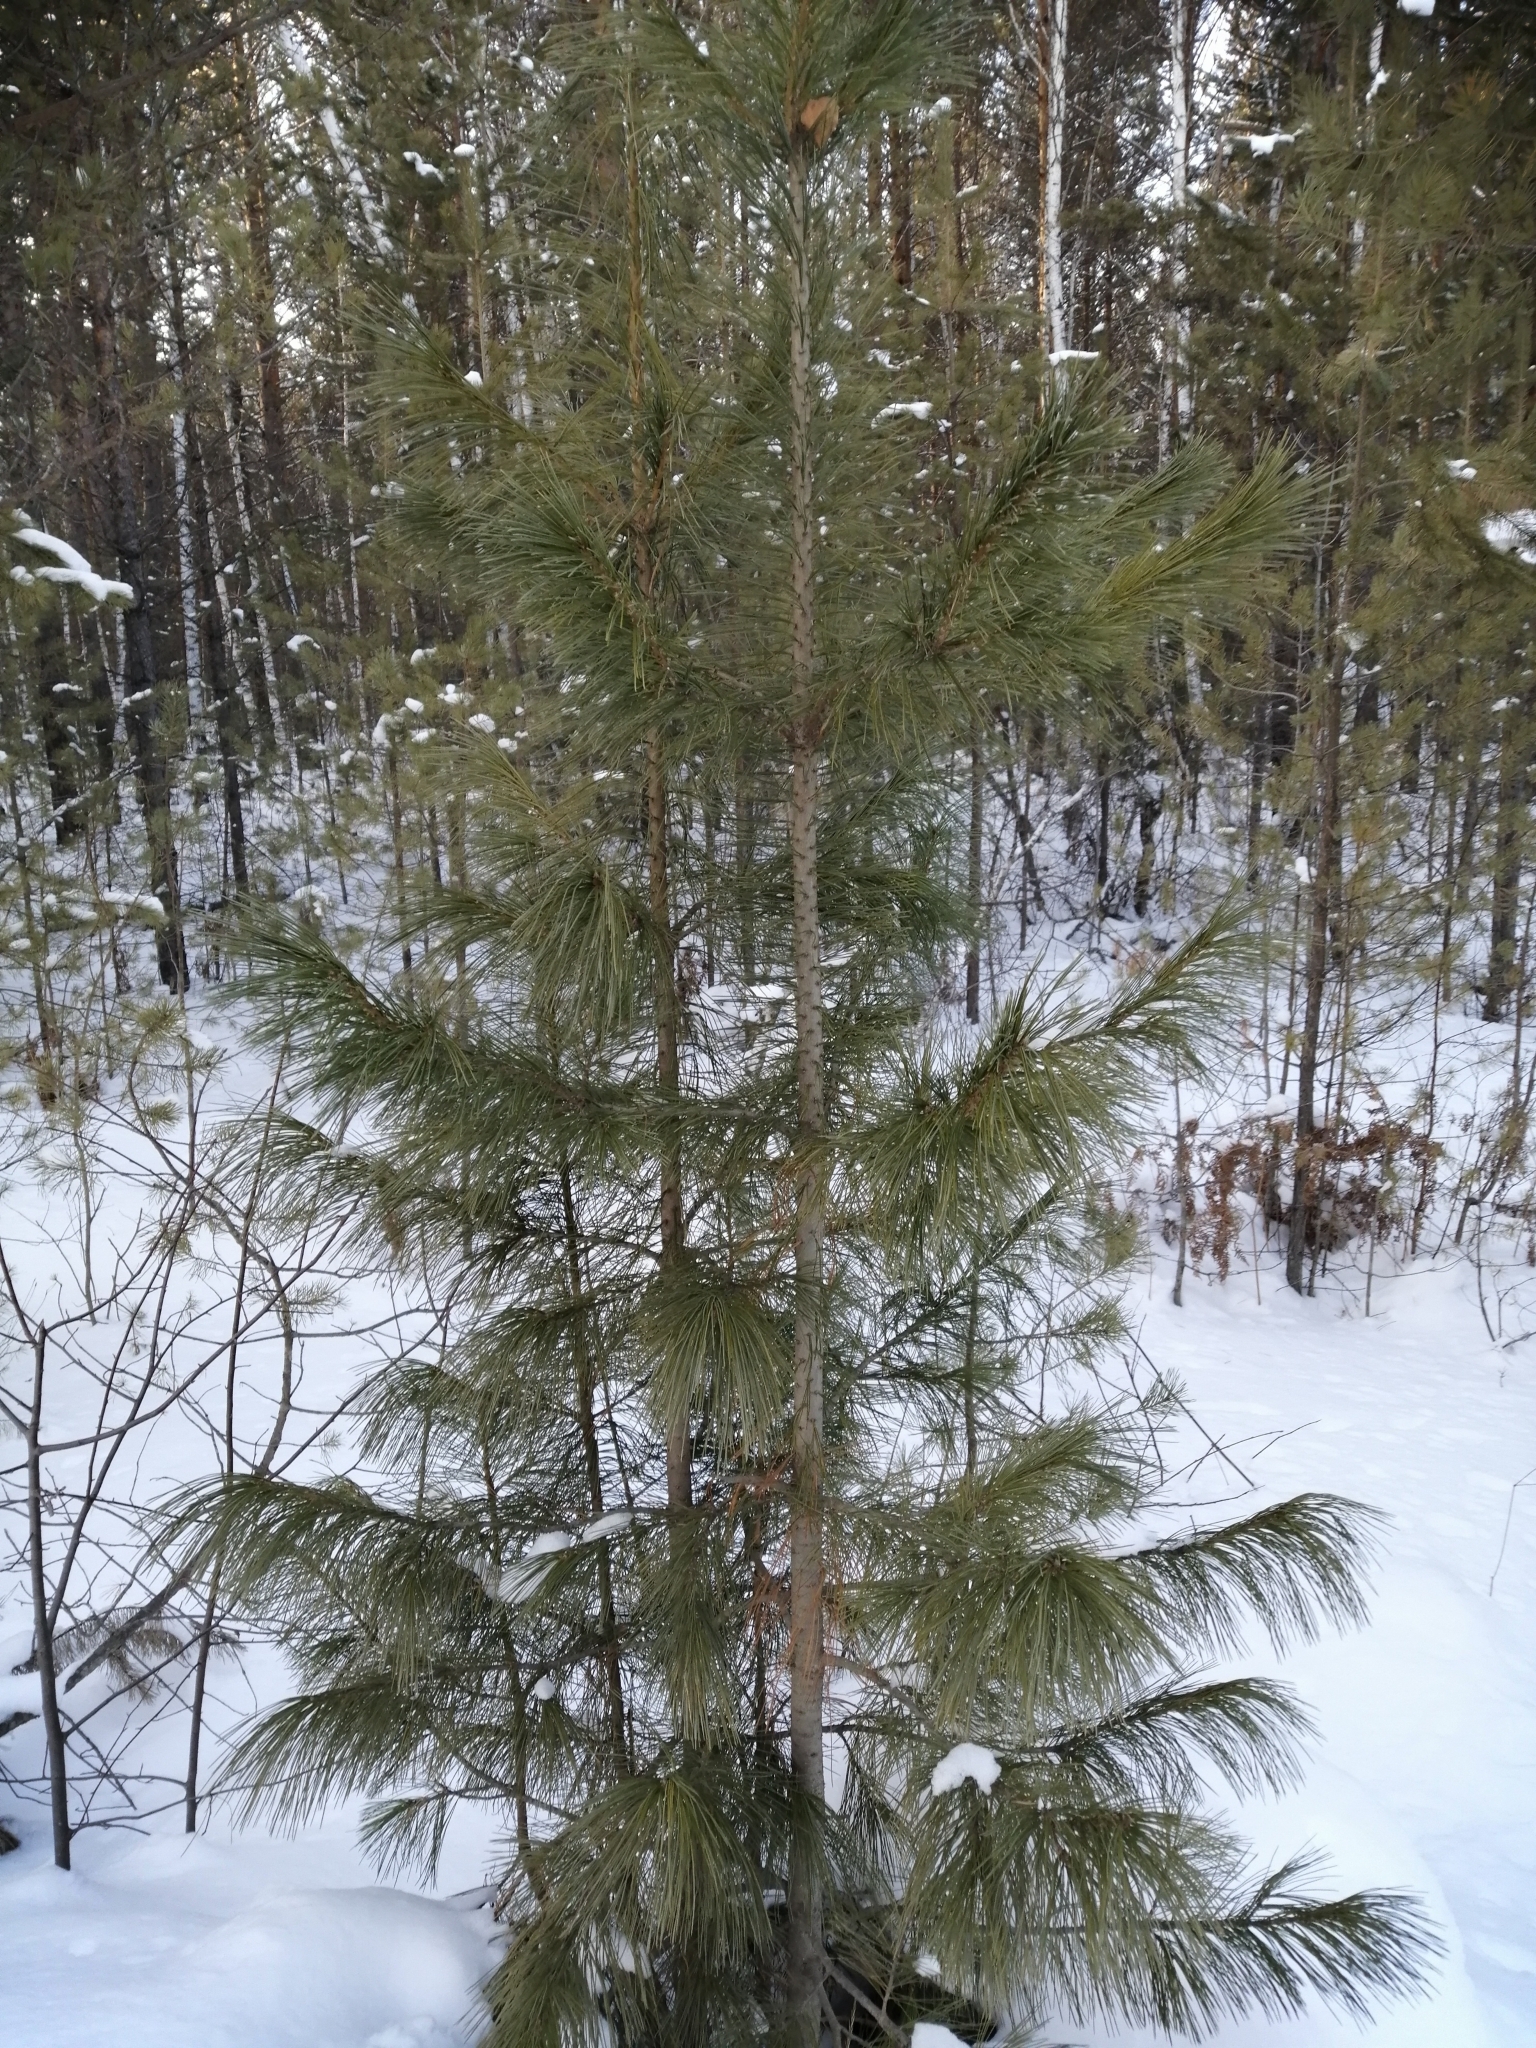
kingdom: Plantae
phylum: Tracheophyta
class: Pinopsida
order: Pinales
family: Pinaceae
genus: Pinus
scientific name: Pinus sibirica
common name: Siberian pine
